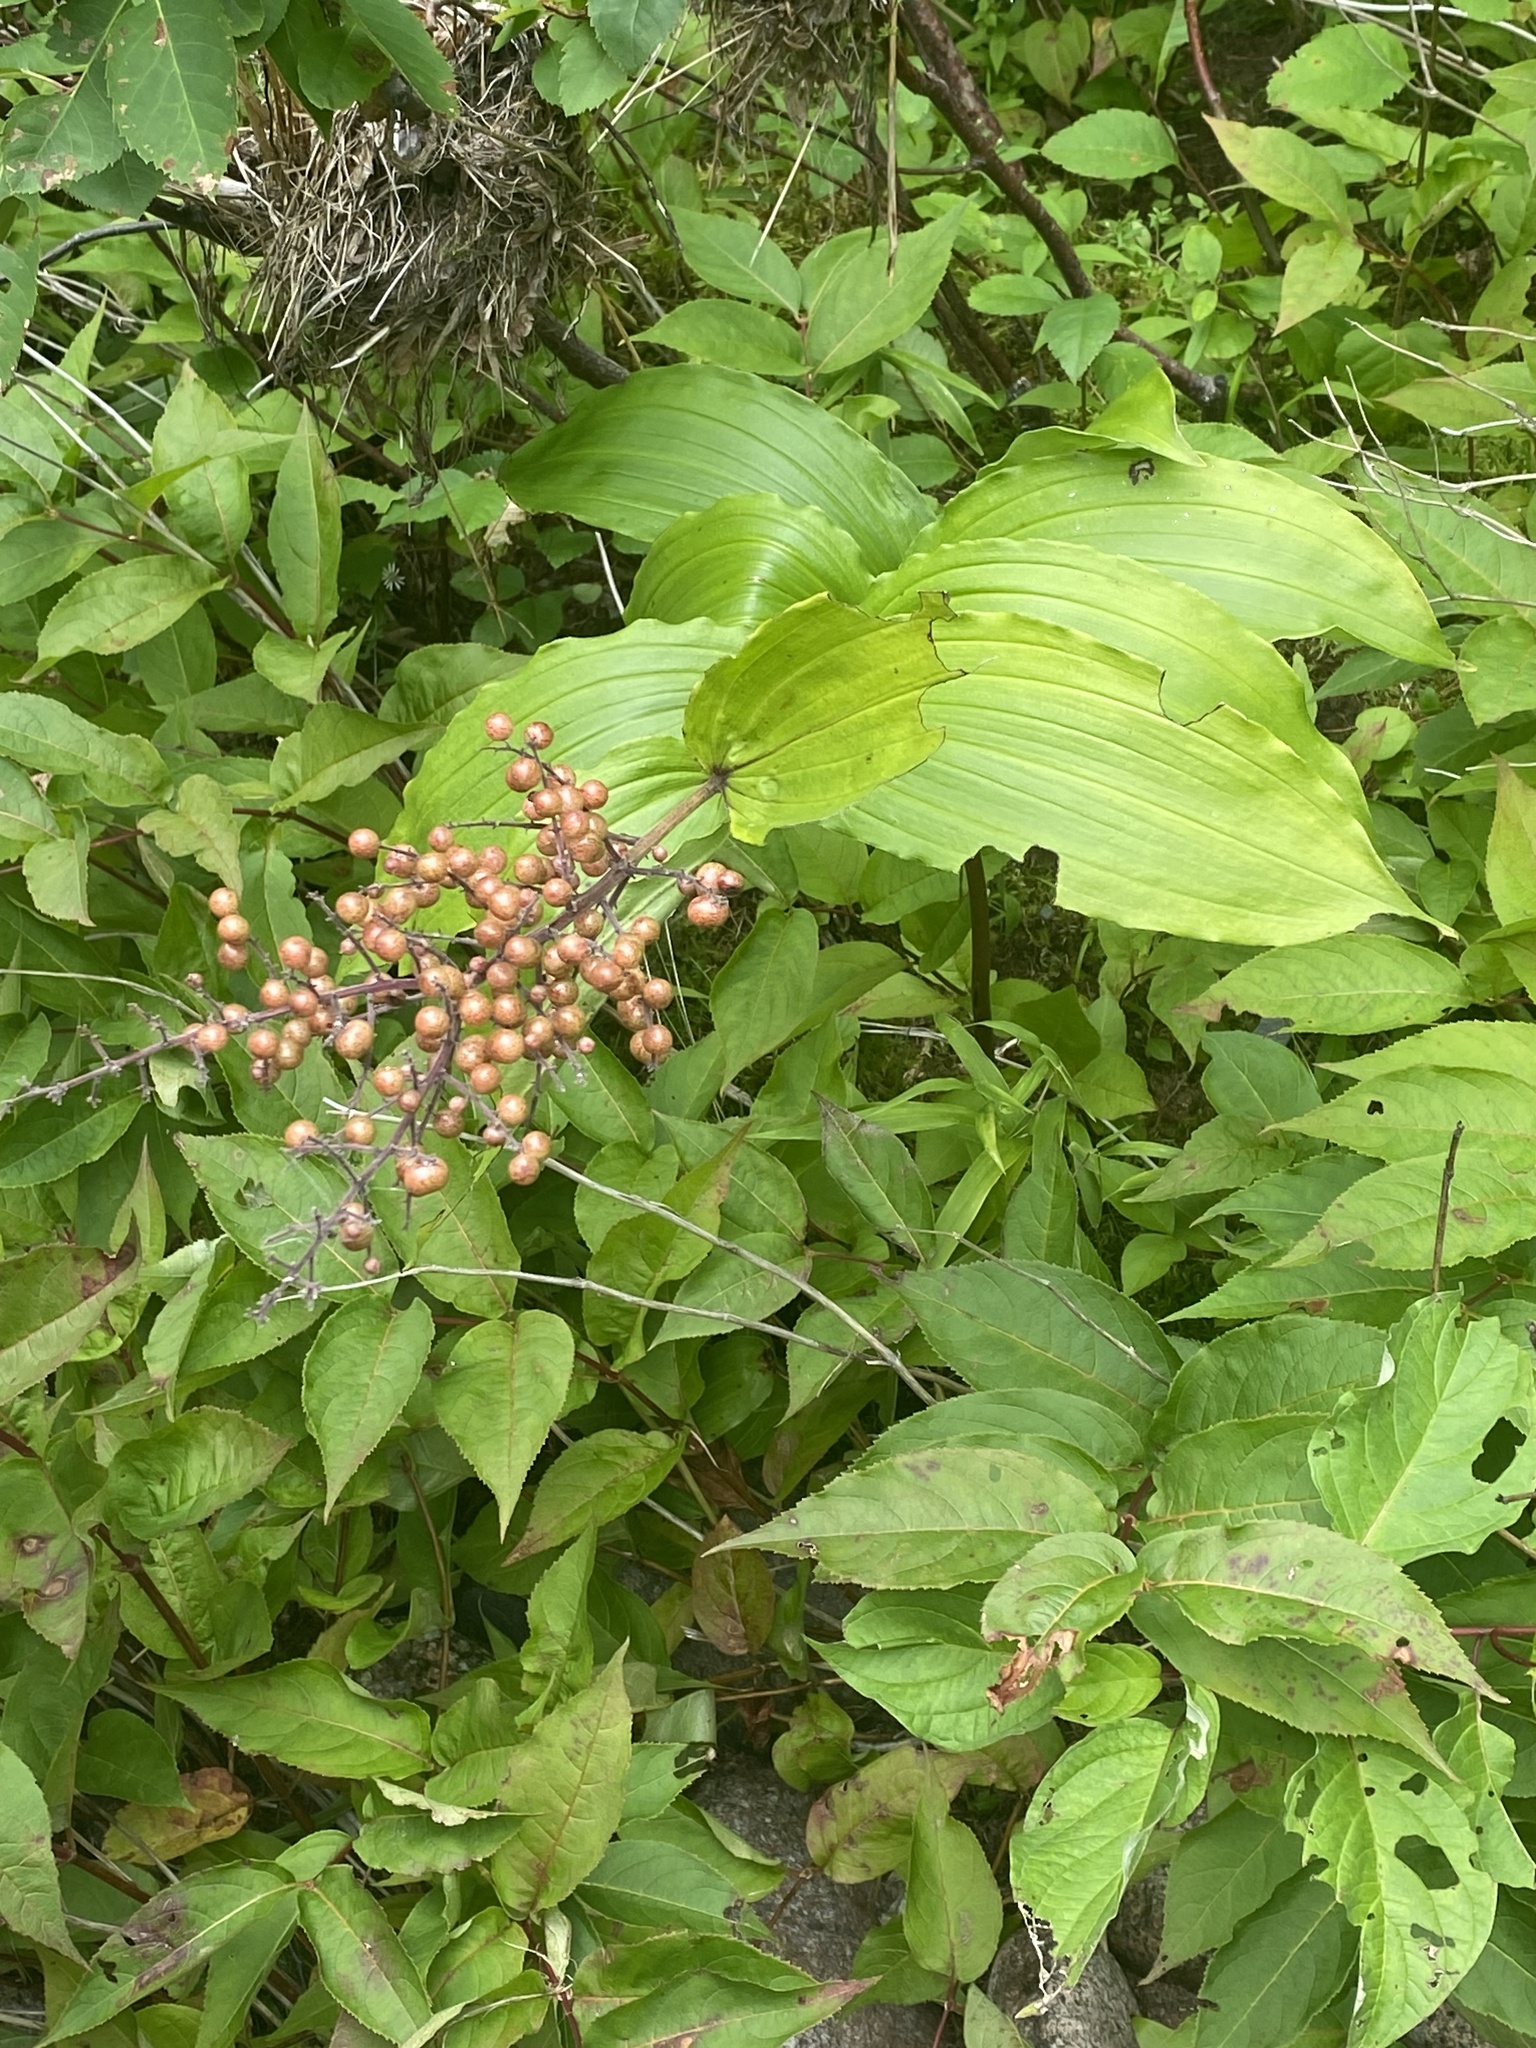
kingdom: Plantae
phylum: Tracheophyta
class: Liliopsida
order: Asparagales
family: Asparagaceae
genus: Maianthemum
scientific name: Maianthemum racemosum
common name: False spikenard
